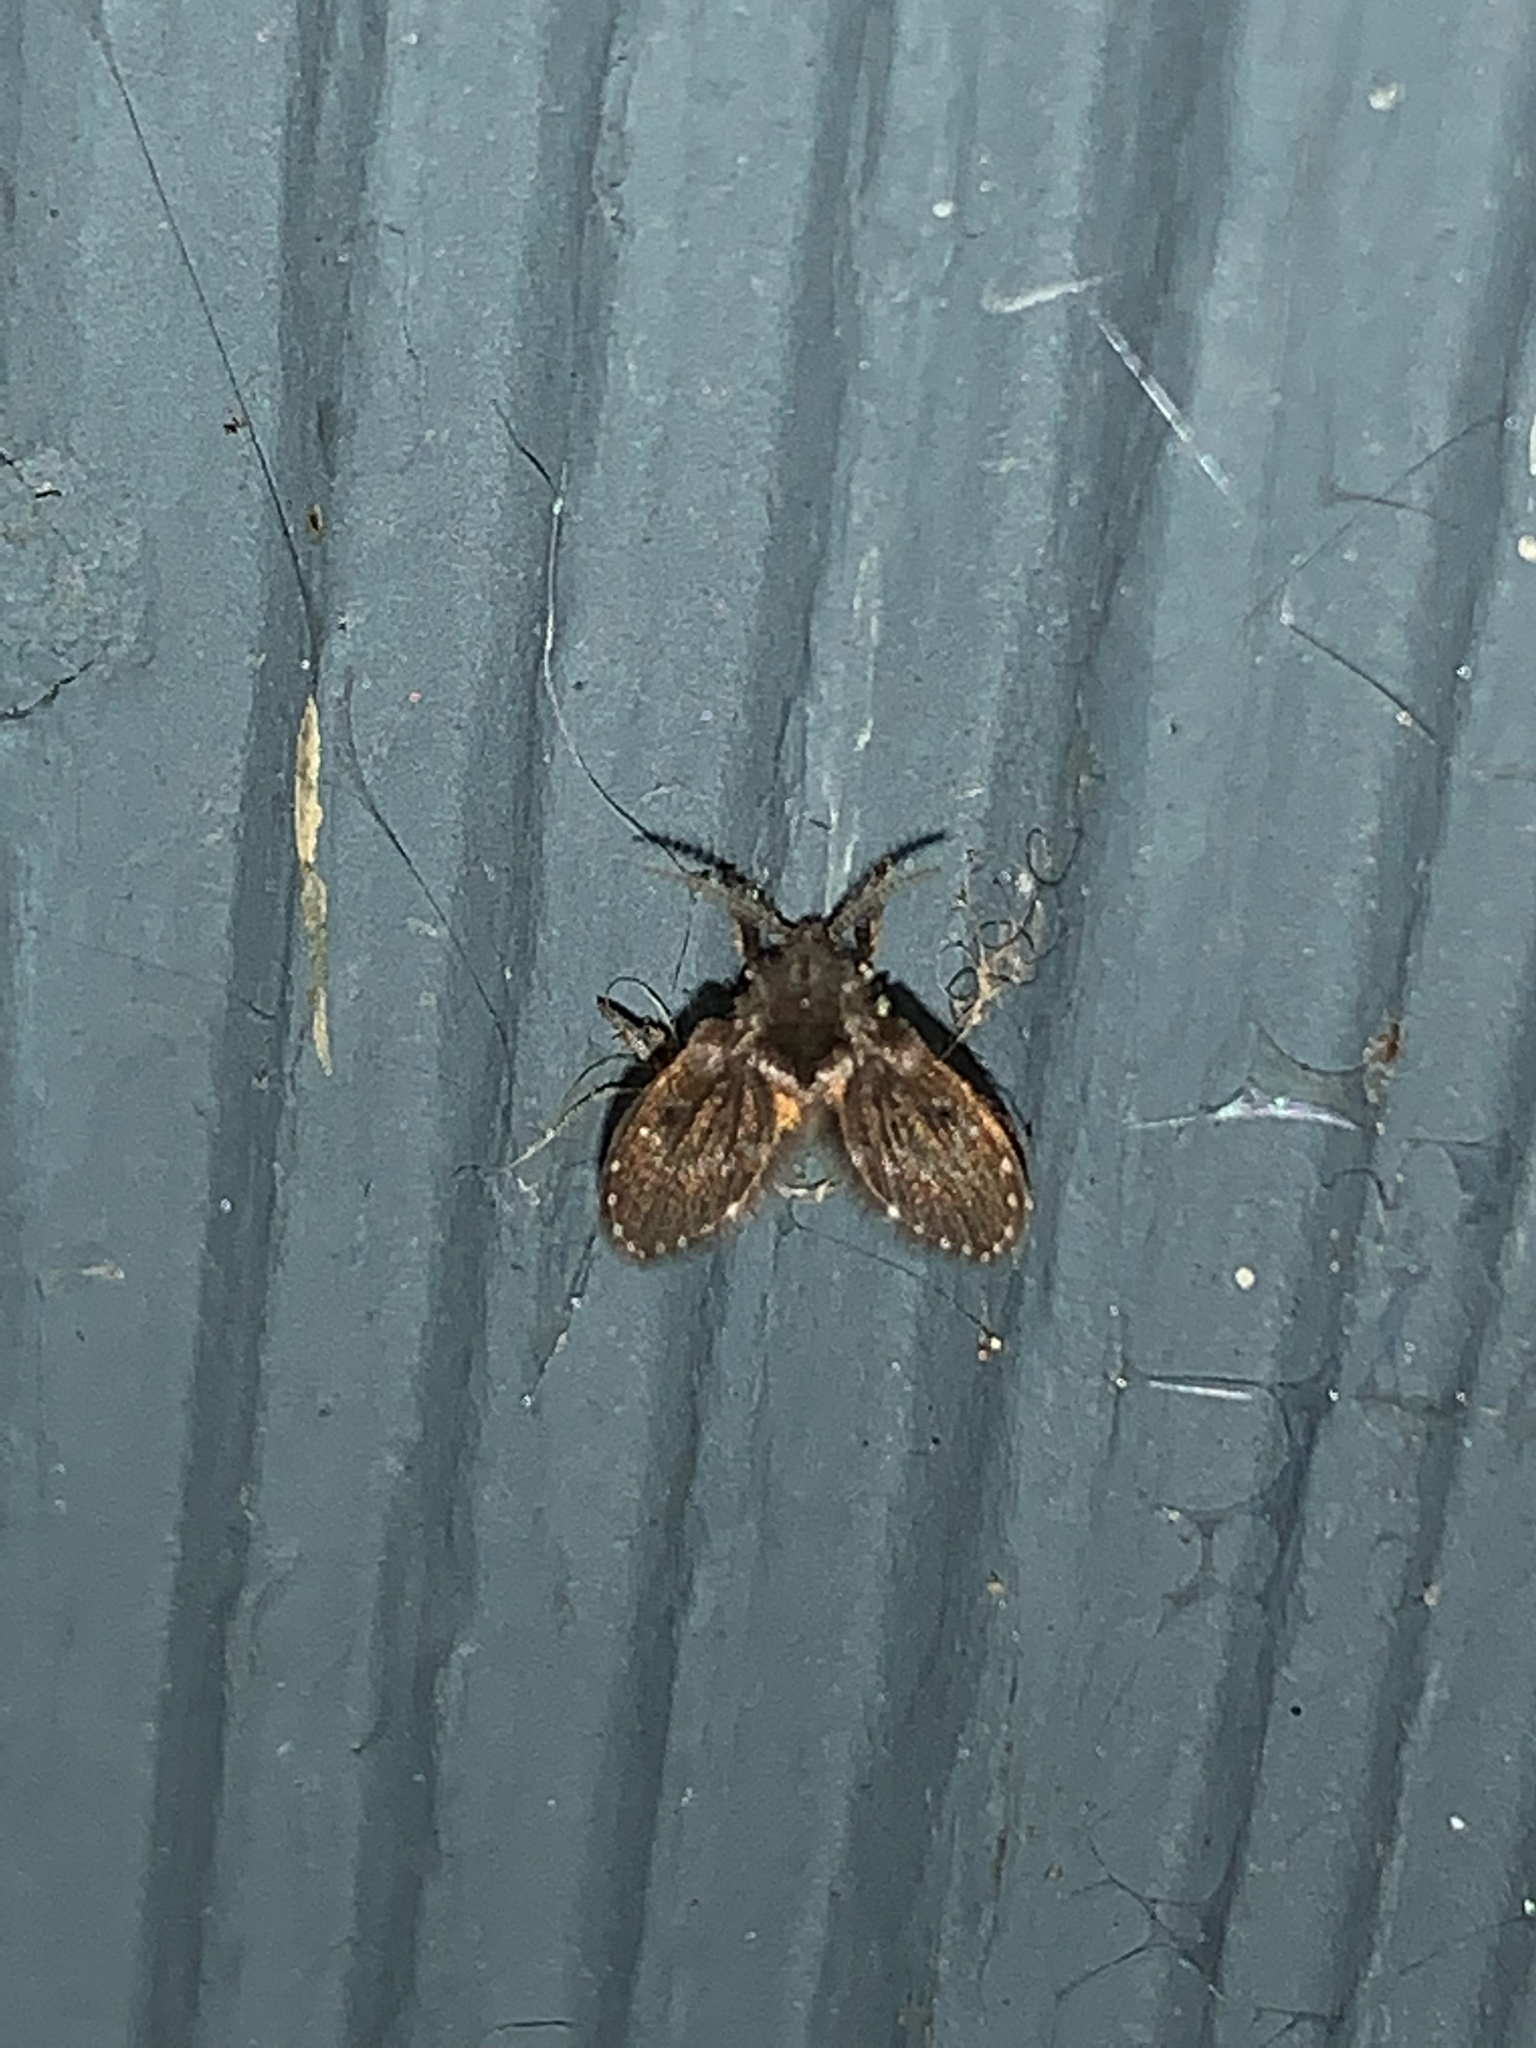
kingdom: Animalia
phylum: Arthropoda
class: Insecta
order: Diptera
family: Psychodidae
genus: Clogmia
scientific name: Clogmia albipunctatus
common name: White-spotted moth fly
